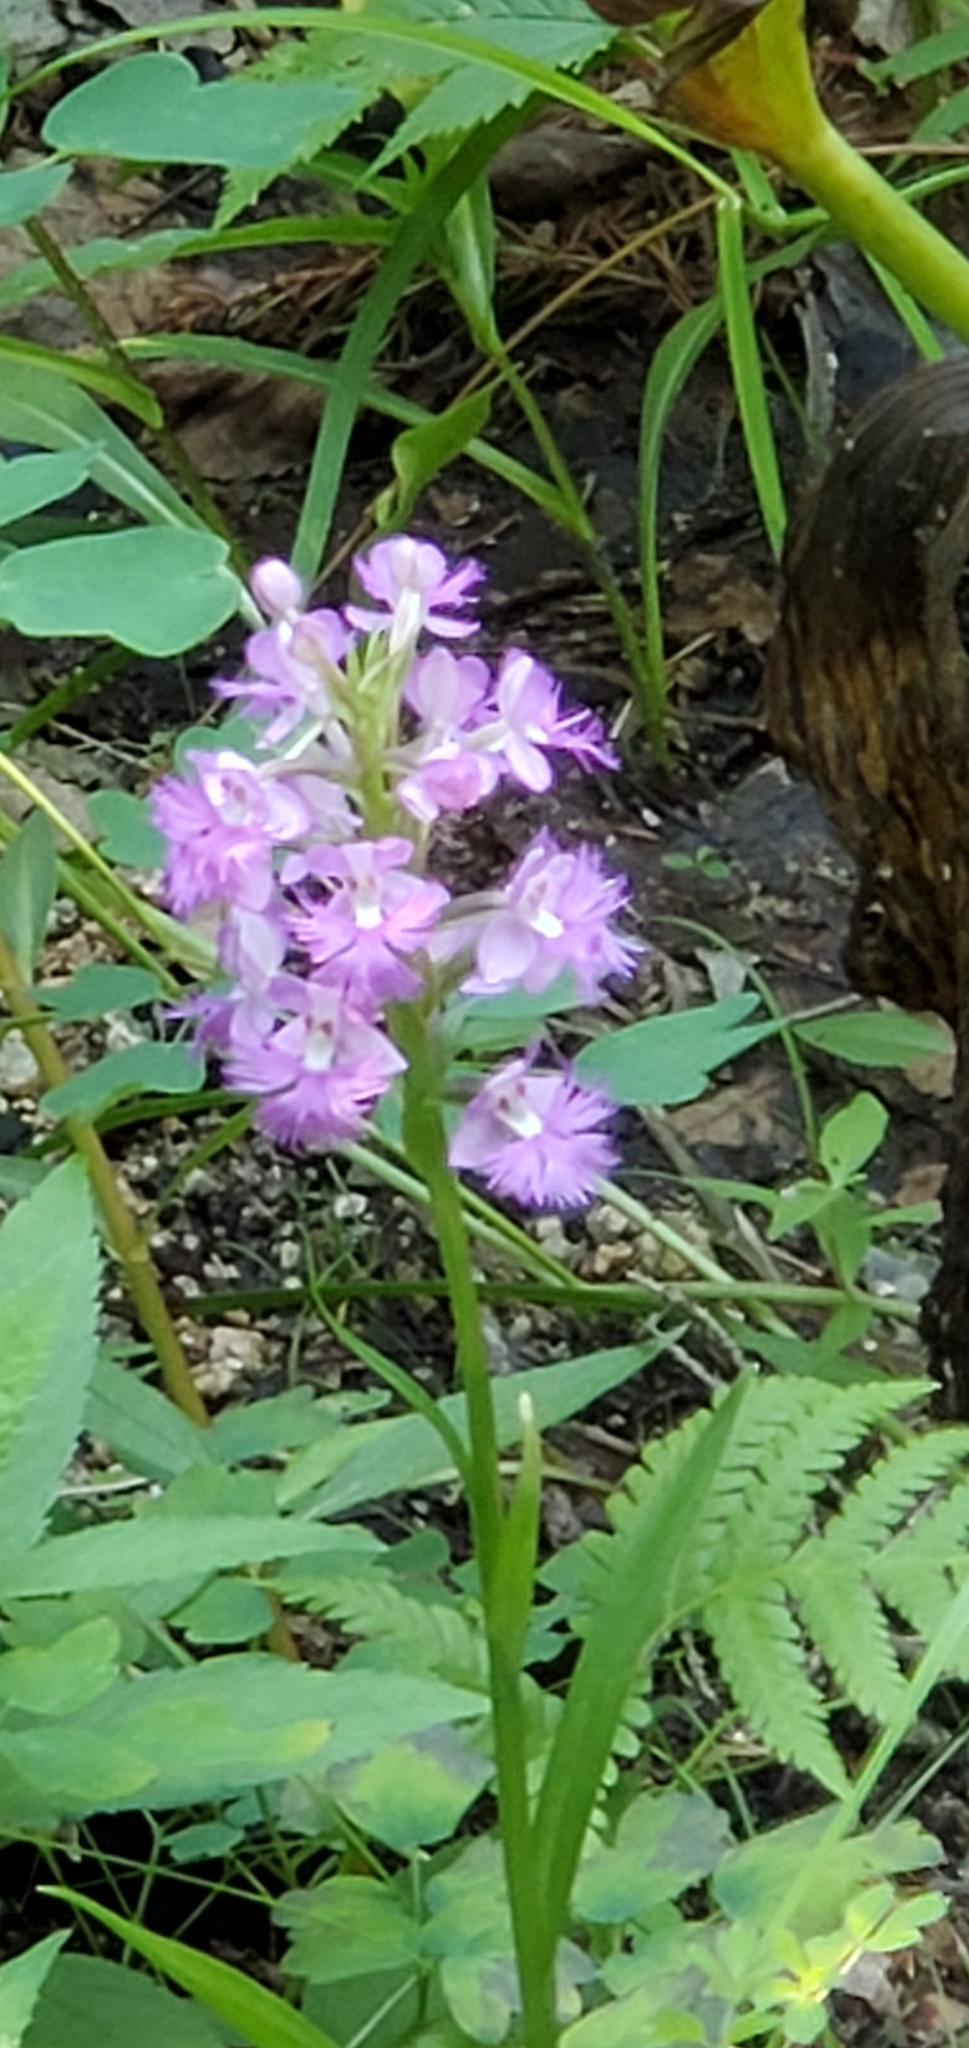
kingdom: Plantae
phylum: Tracheophyta
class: Liliopsida
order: Asparagales
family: Orchidaceae
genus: Platanthera
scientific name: Platanthera grandiflora
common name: Greater purple fringed orchid
